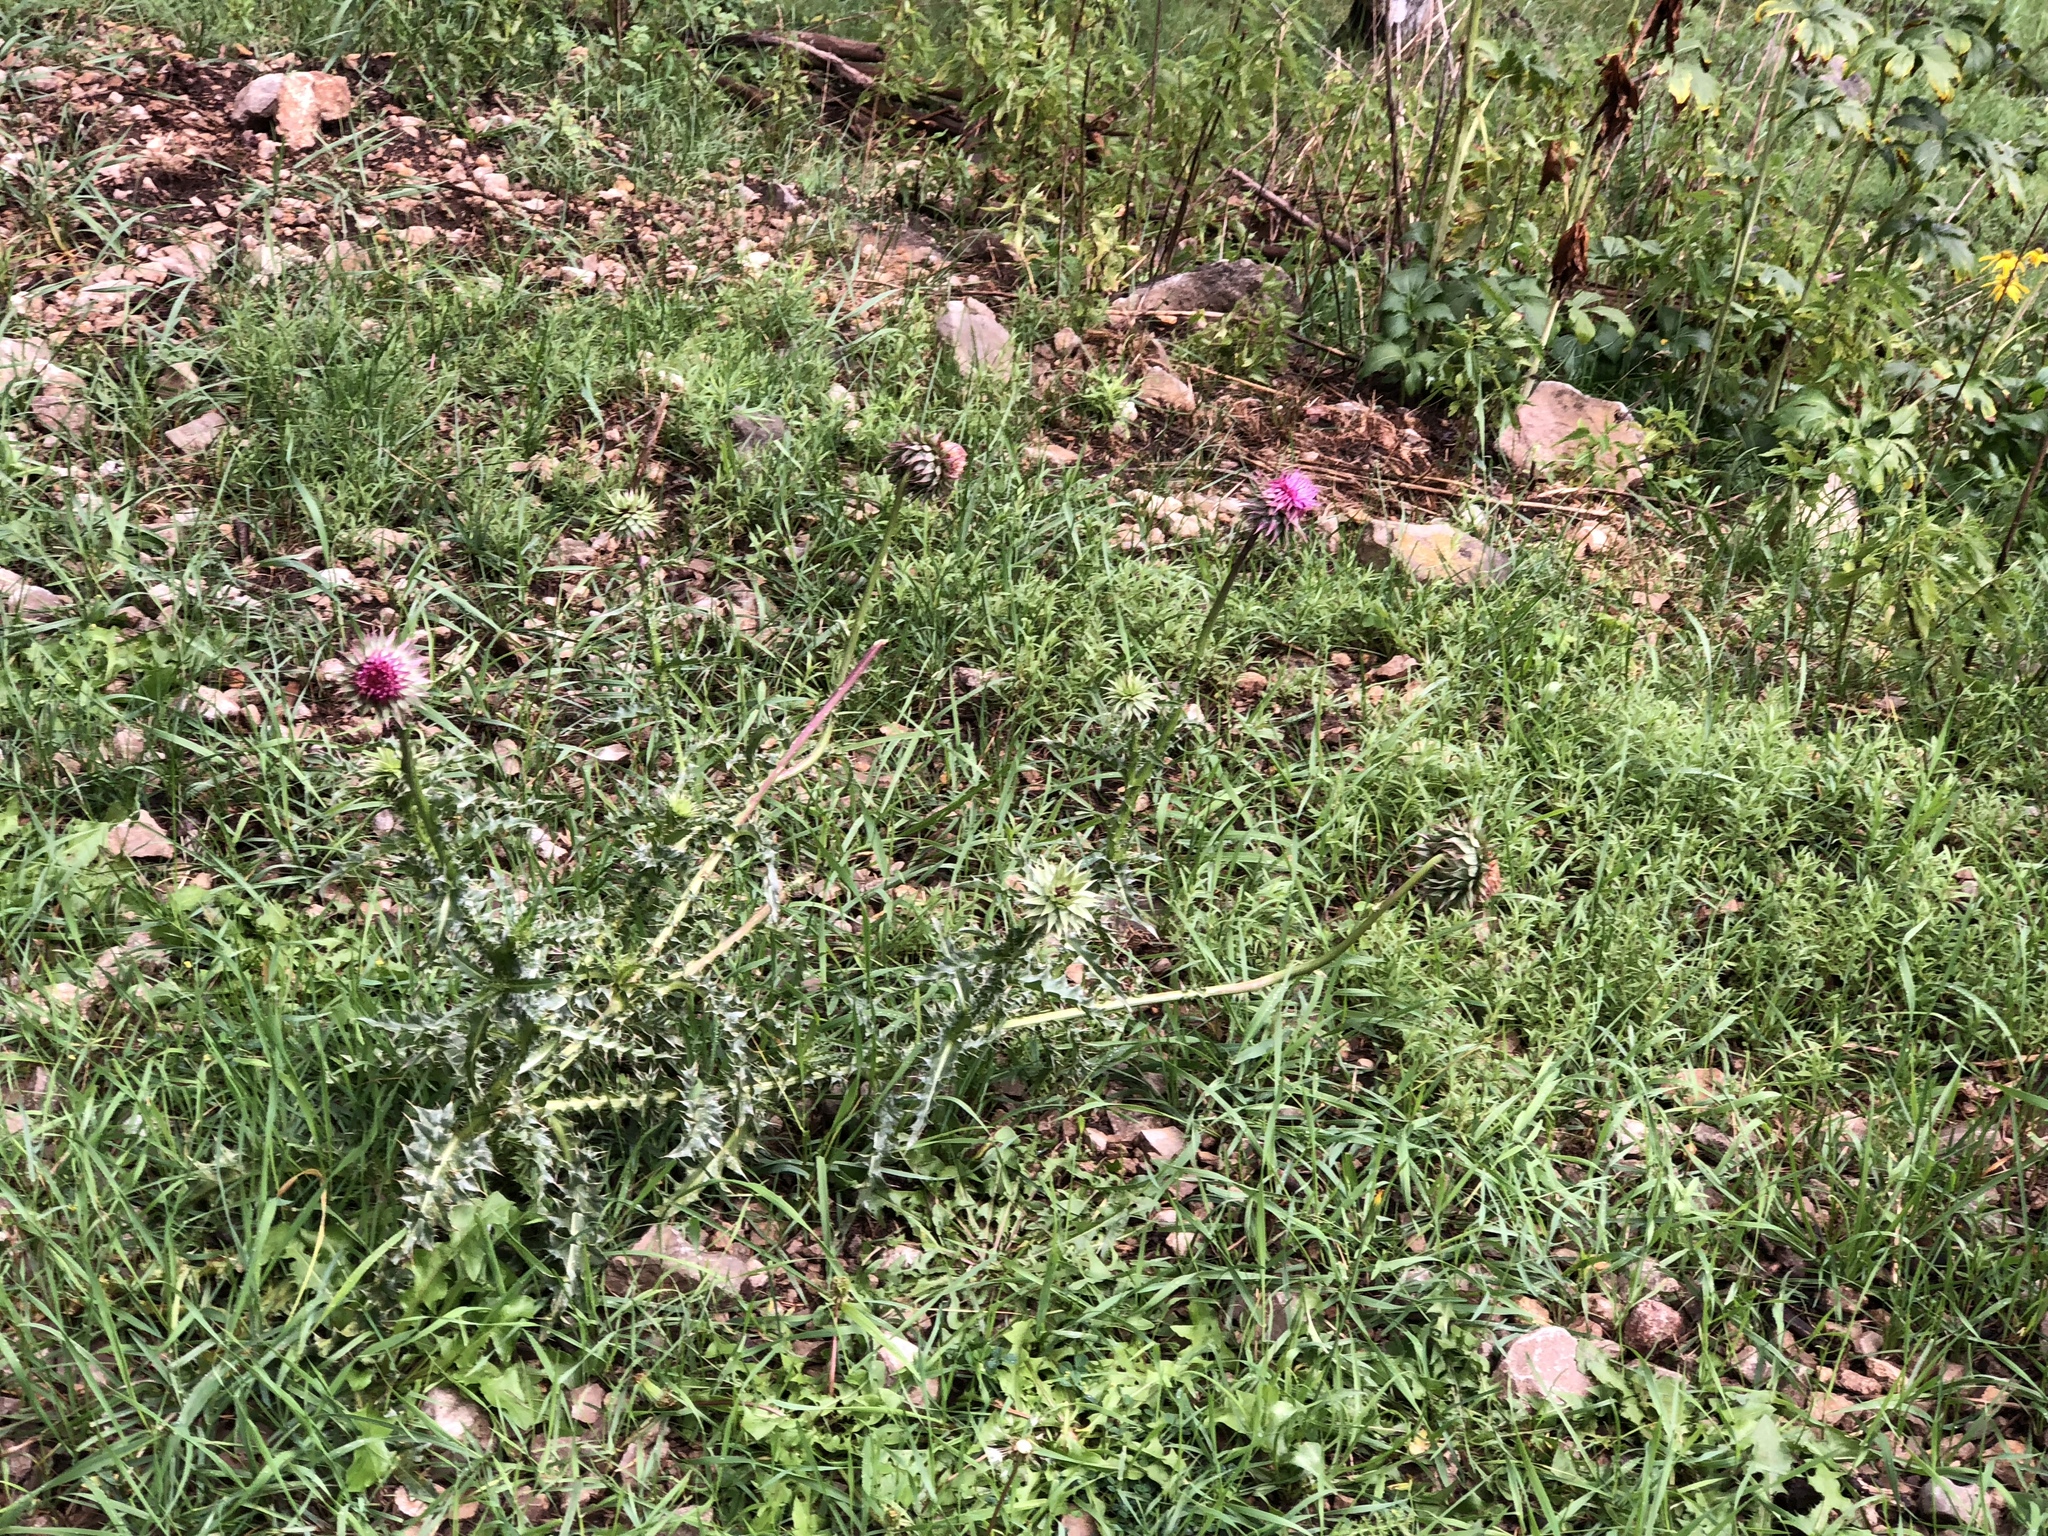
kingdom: Plantae
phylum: Tracheophyta
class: Magnoliopsida
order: Asterales
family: Asteraceae
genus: Carduus
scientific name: Carduus nutans
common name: Musk thistle
